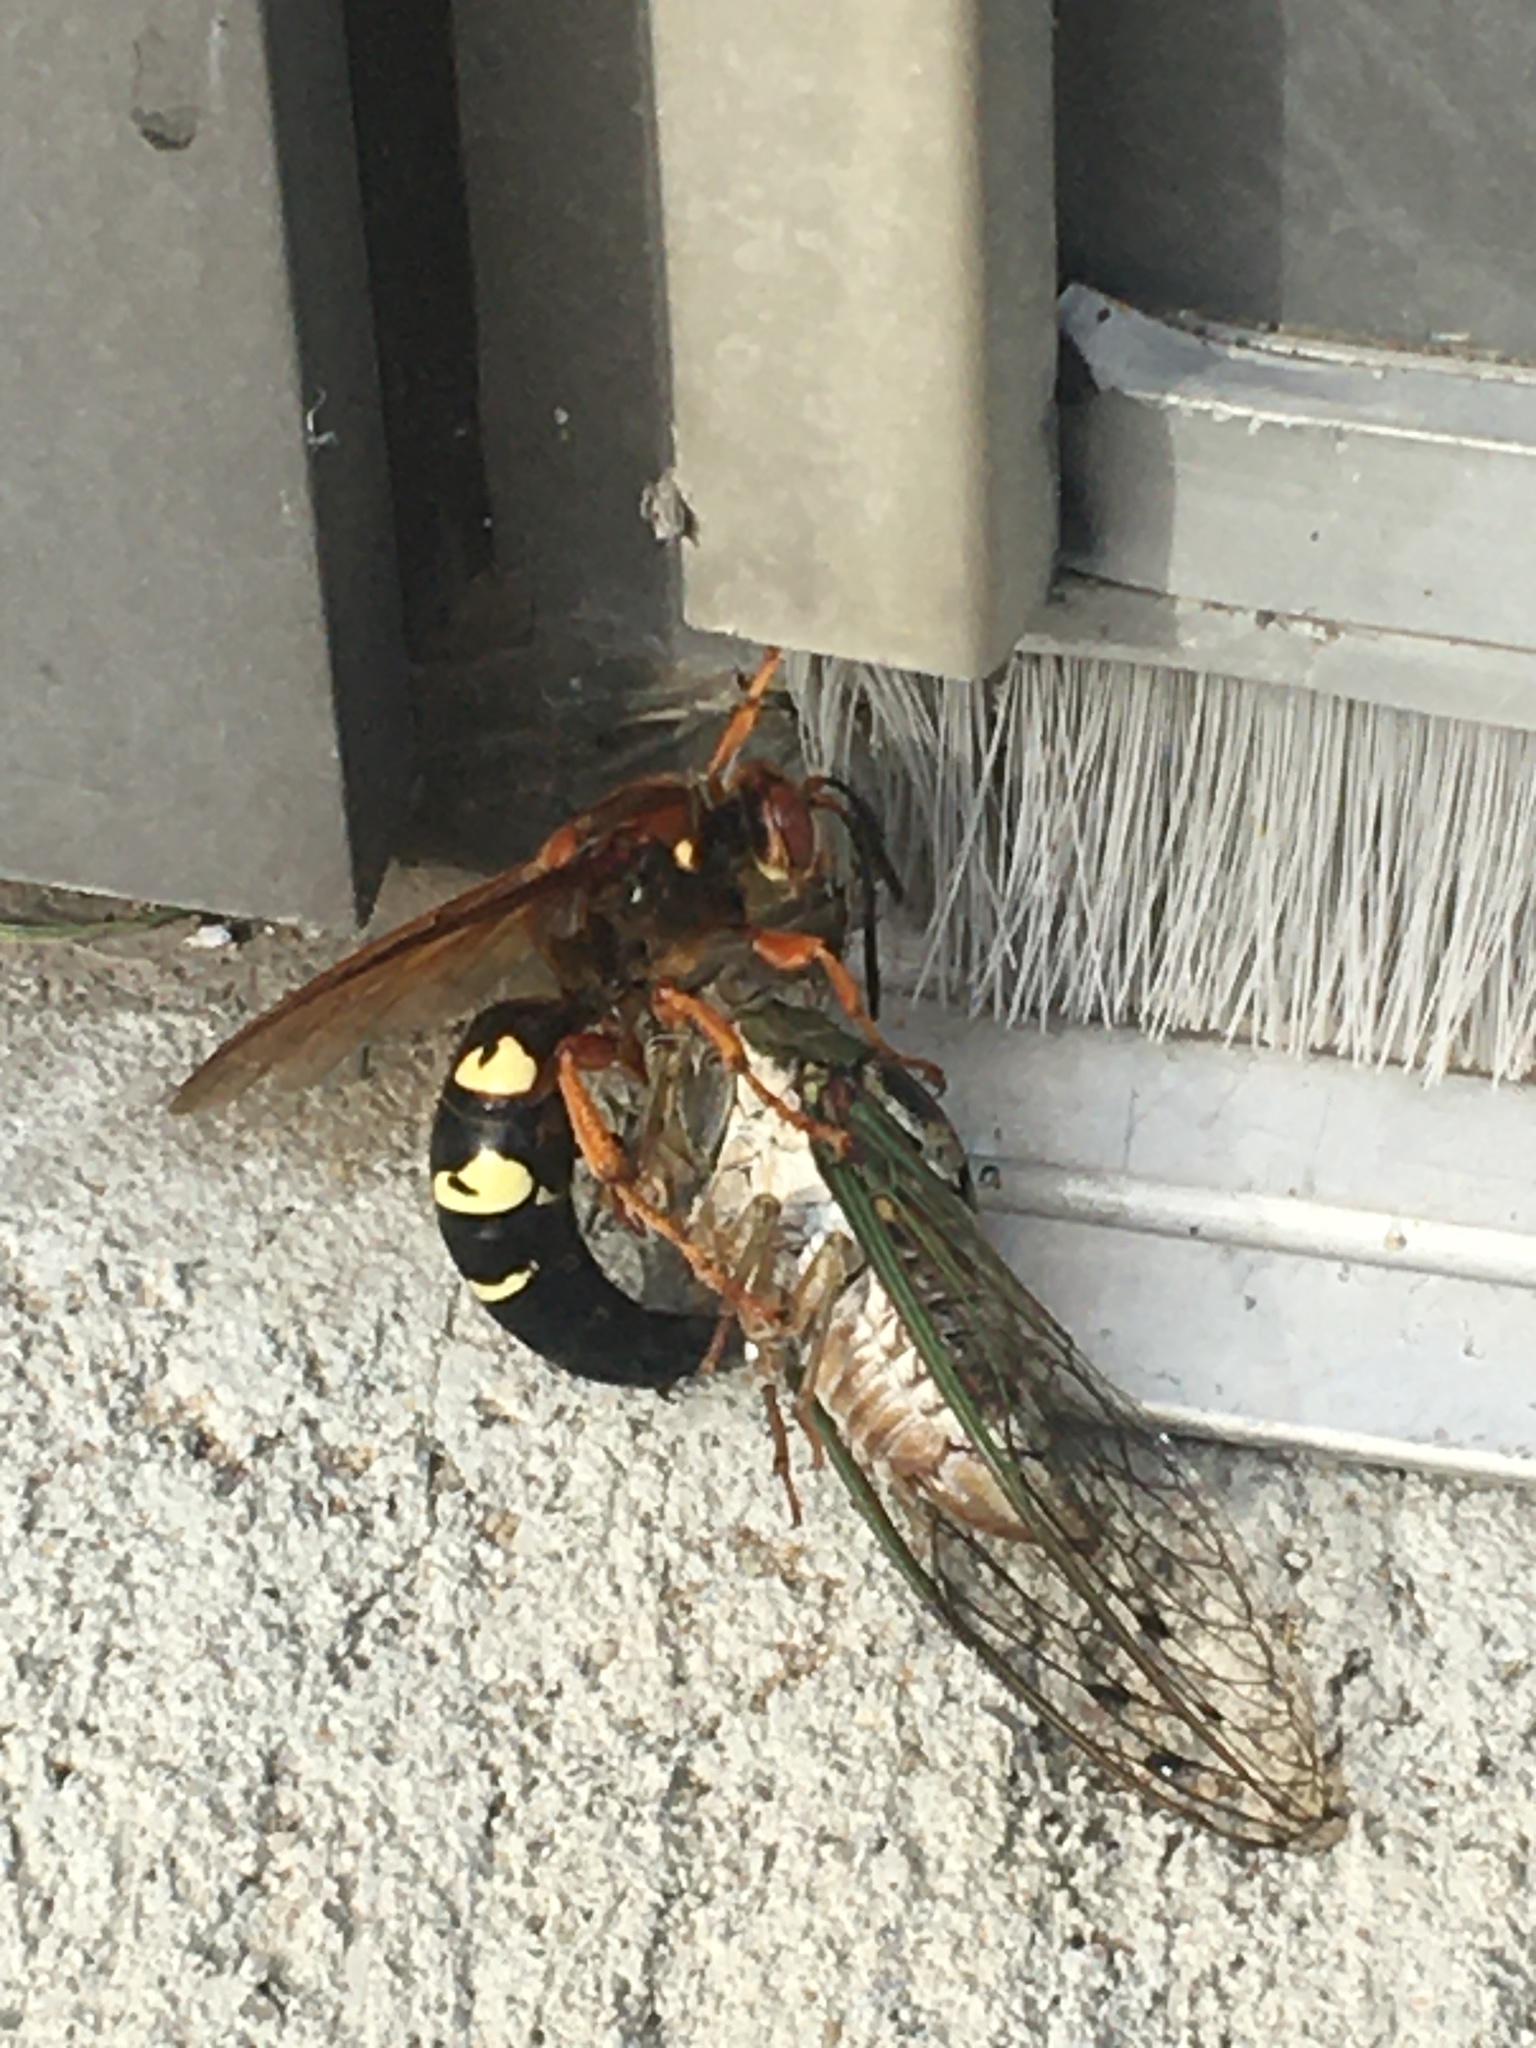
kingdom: Animalia
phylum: Arthropoda
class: Insecta
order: Hymenoptera
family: Crabronidae
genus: Sphecius
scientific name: Sphecius speciosus
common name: Cicada killer
